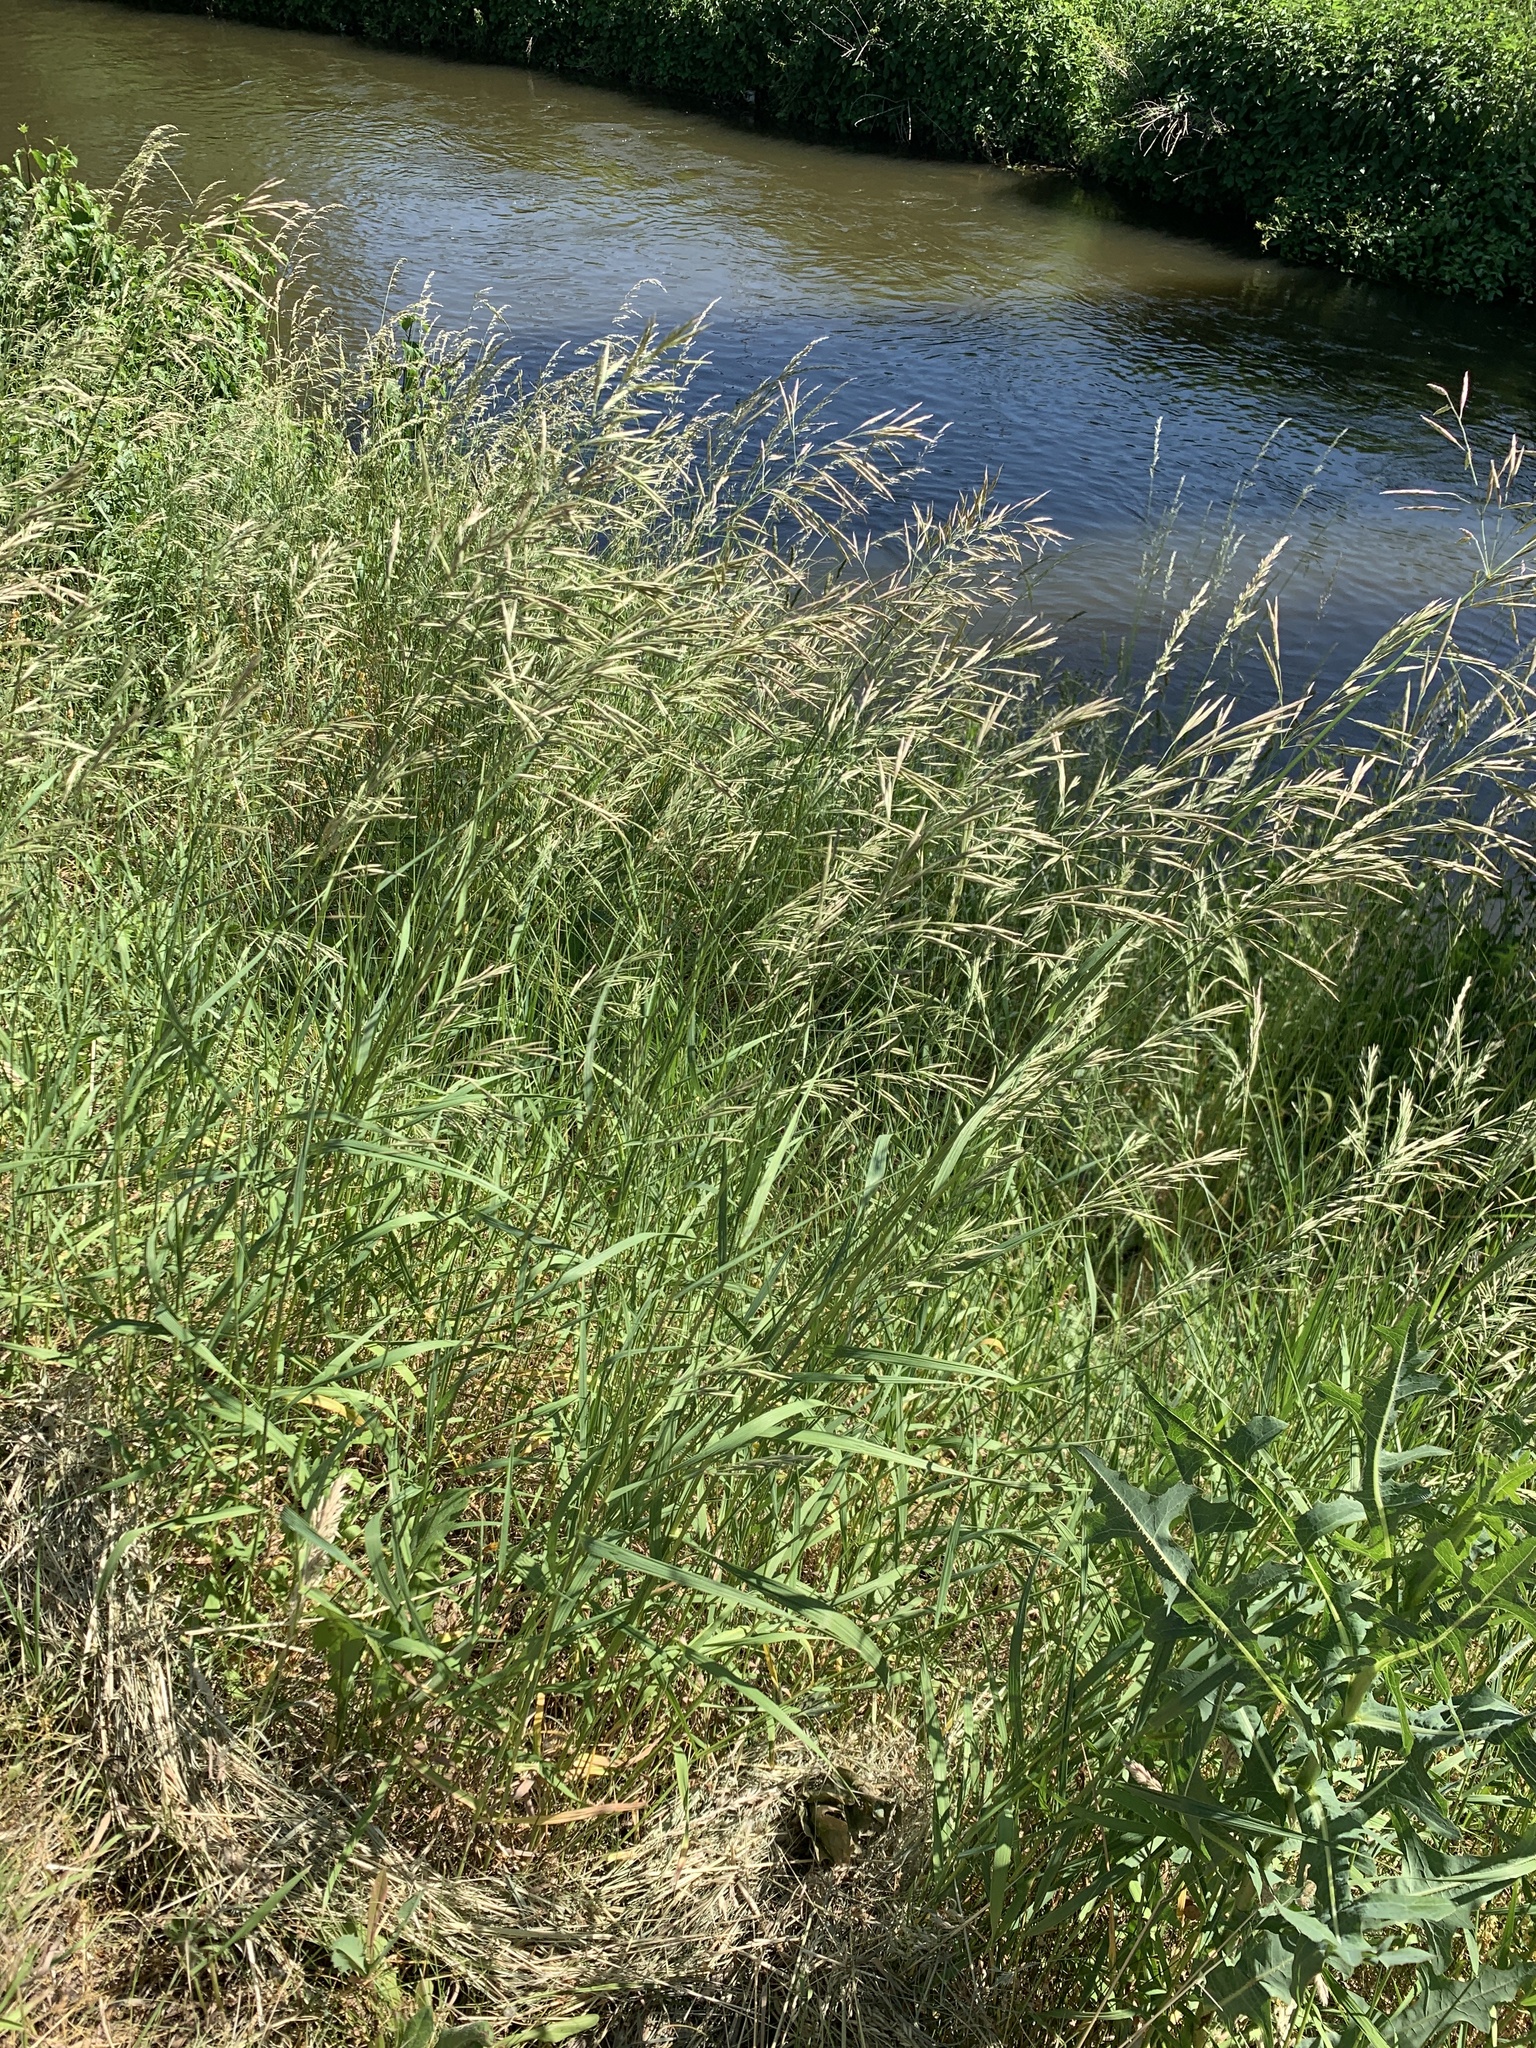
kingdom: Plantae
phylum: Tracheophyta
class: Liliopsida
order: Poales
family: Poaceae
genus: Bromus
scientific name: Bromus inermis
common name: Smooth brome
